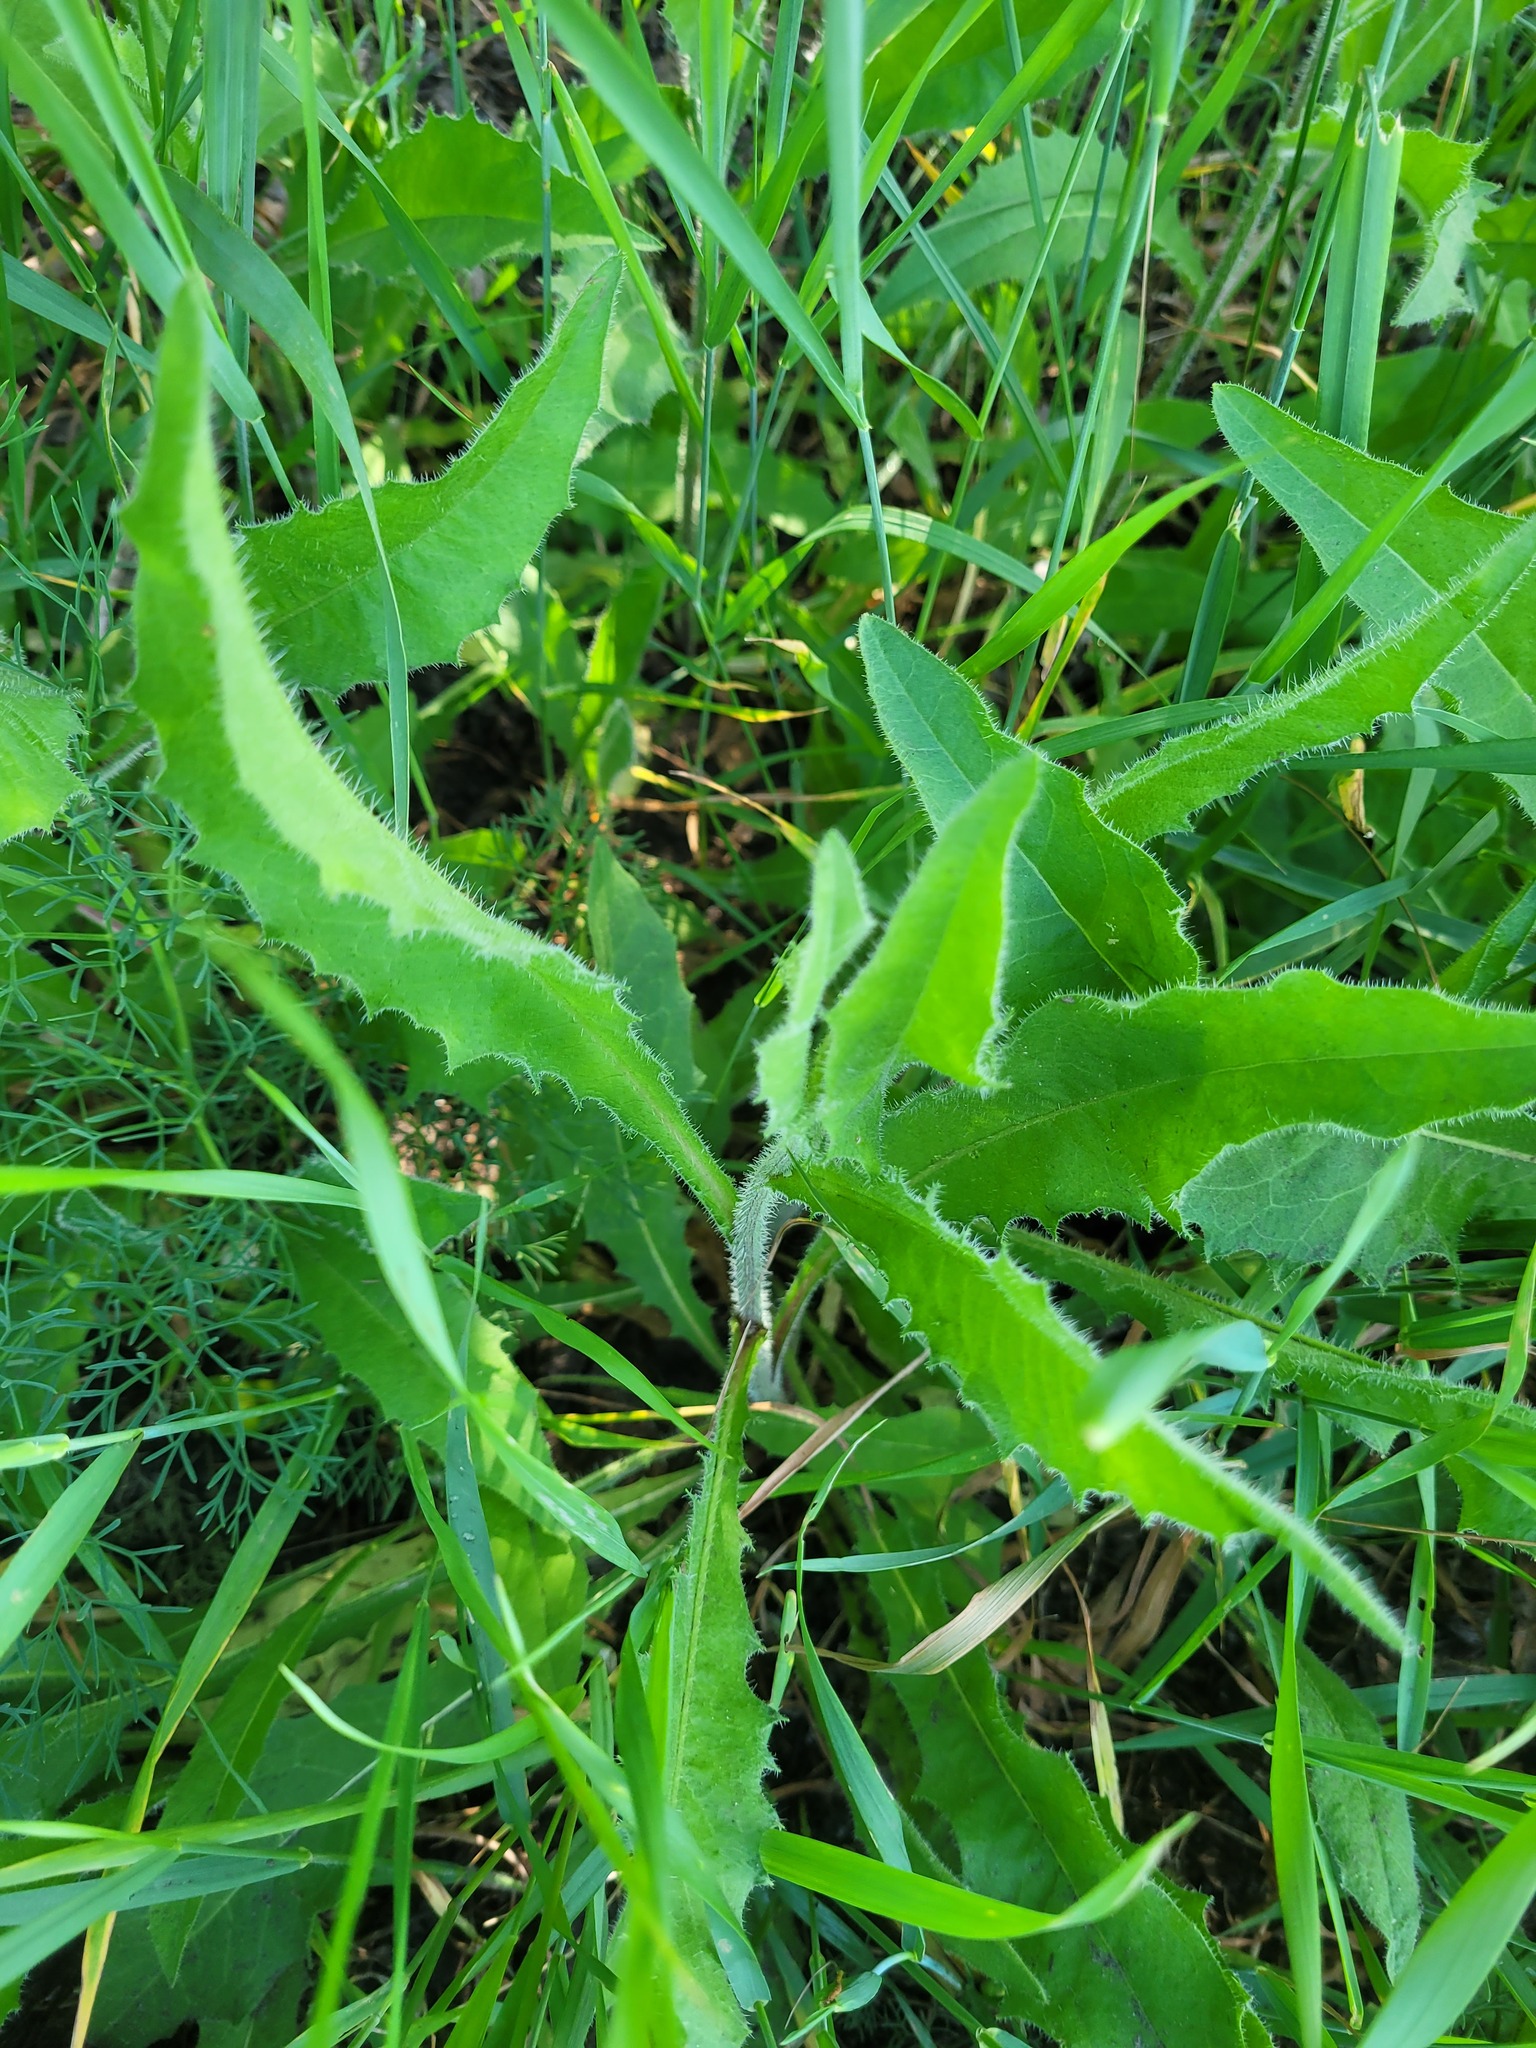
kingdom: Plantae
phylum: Tracheophyta
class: Magnoliopsida
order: Asterales
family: Asteraceae
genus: Picris
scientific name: Picris hieracioides
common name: Hawkweed oxtongue
